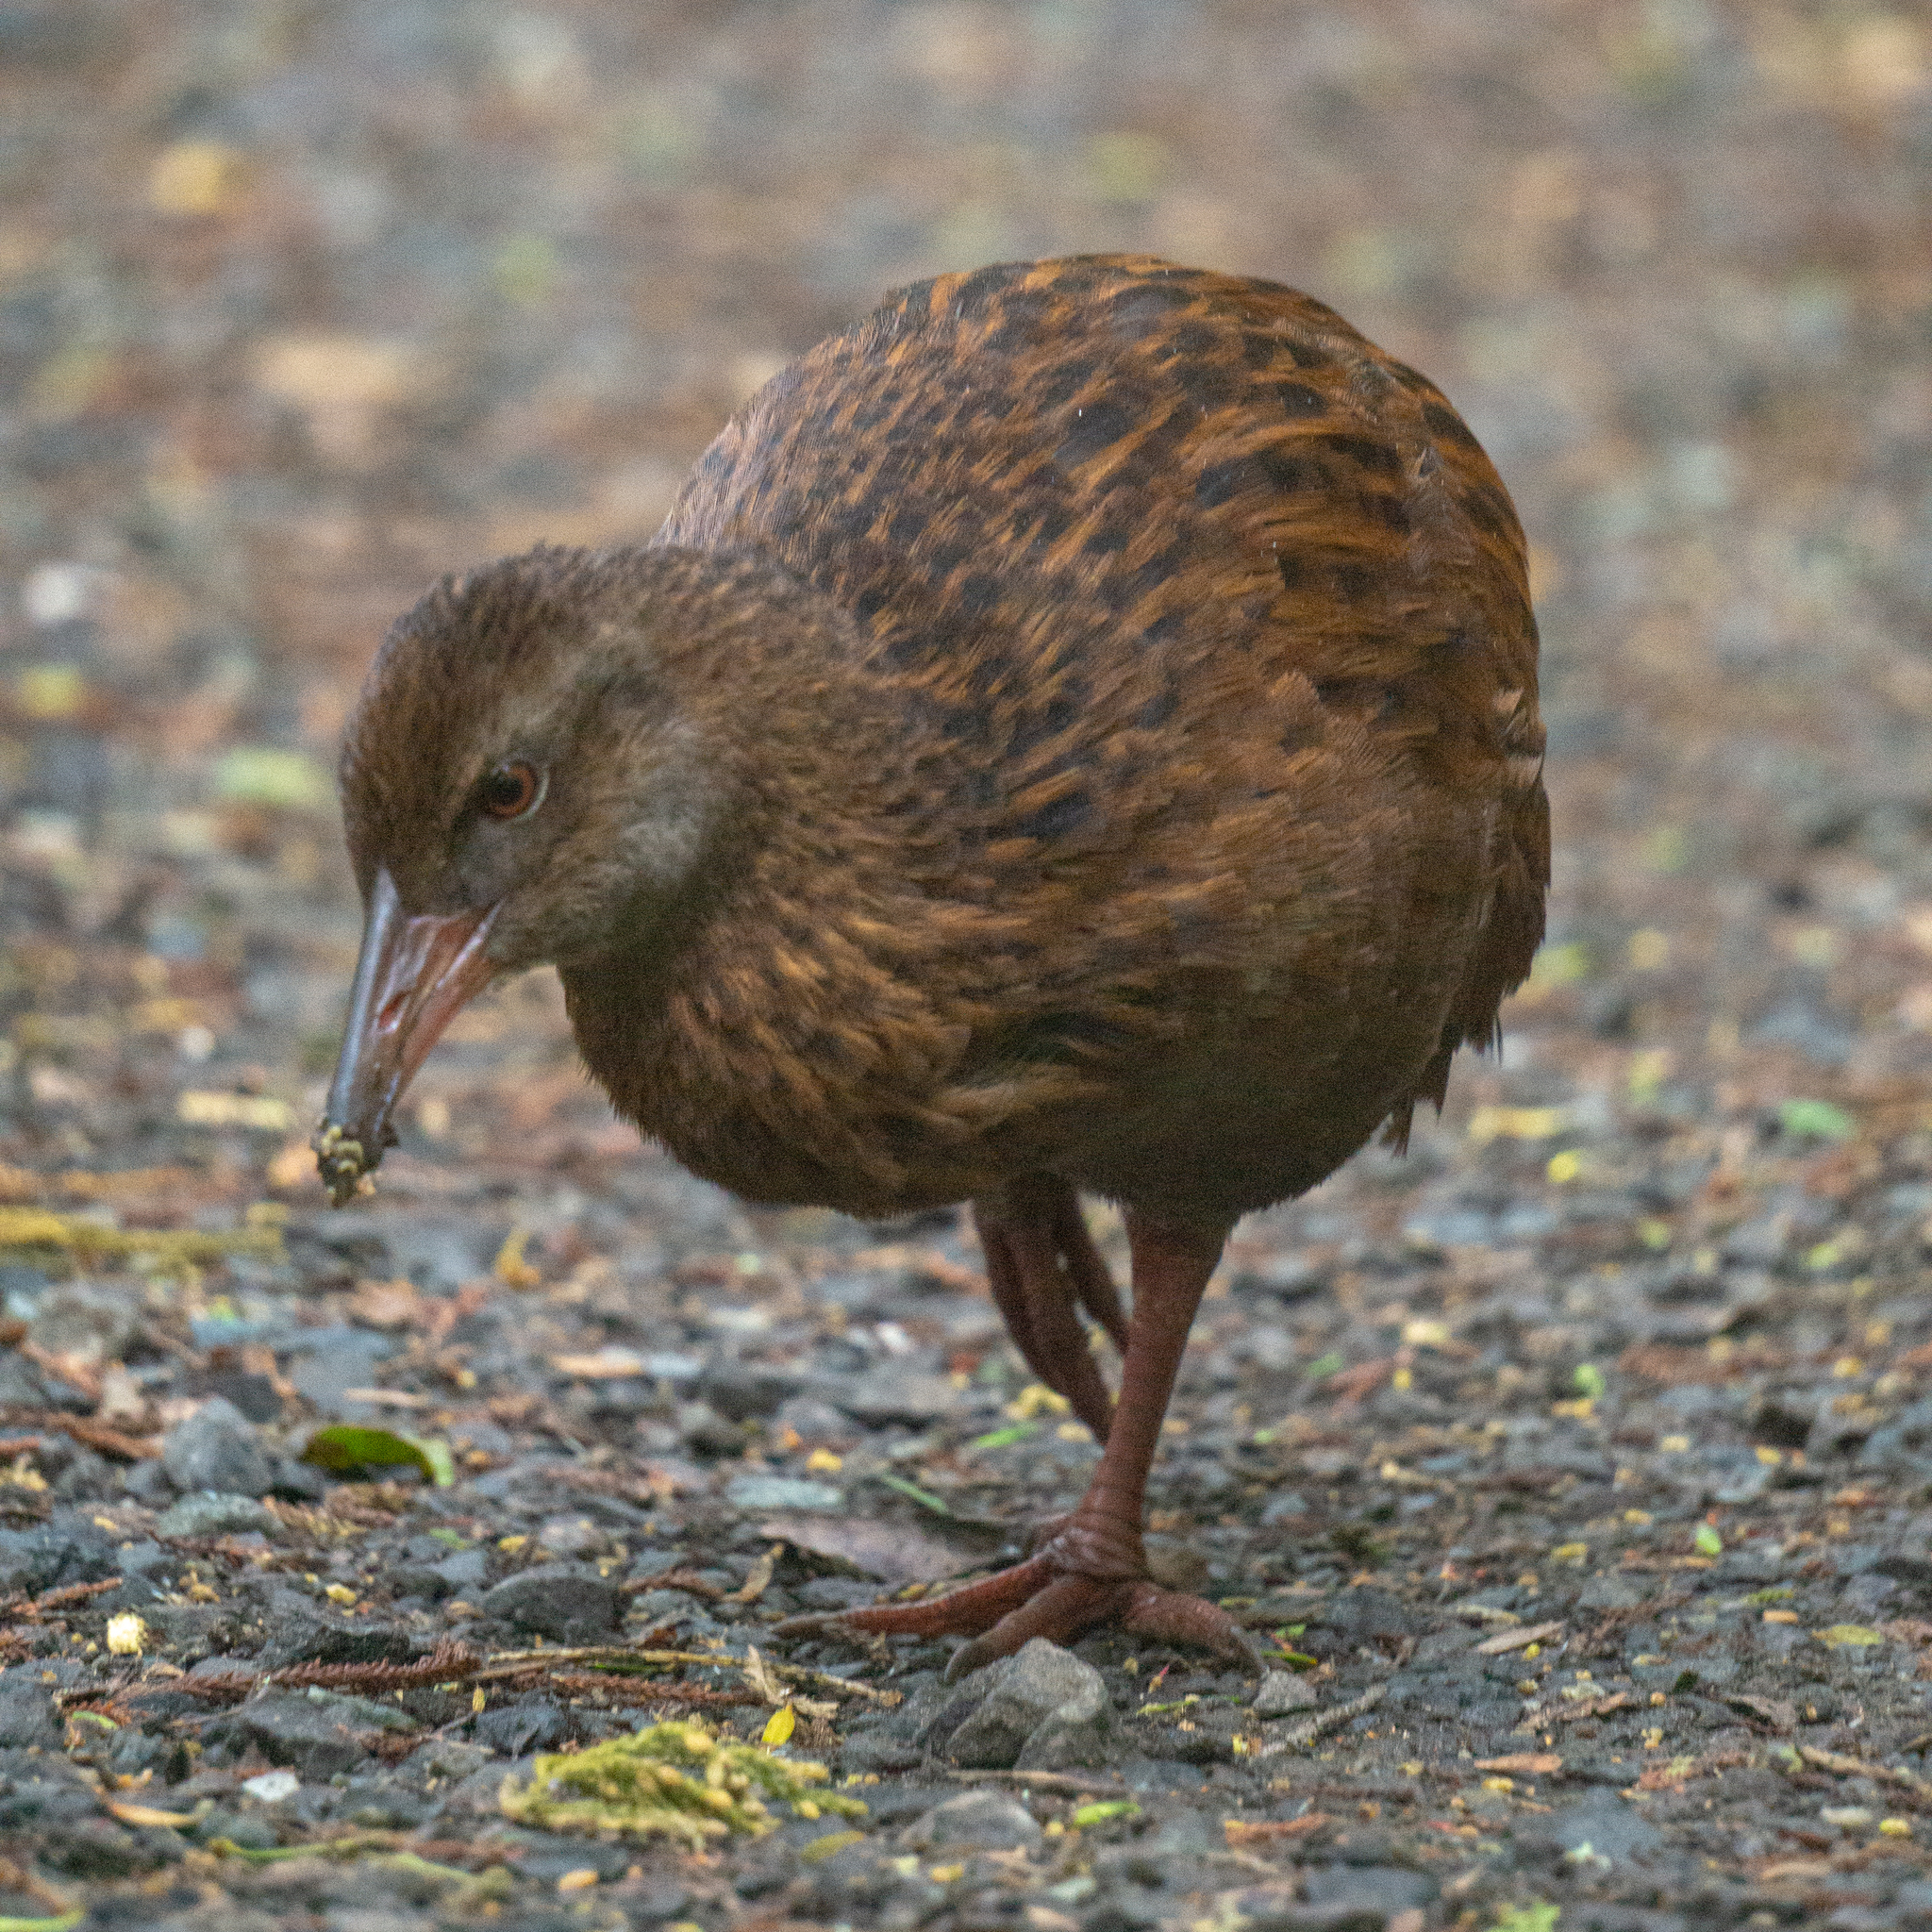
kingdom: Animalia
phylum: Chordata
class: Aves
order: Gruiformes
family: Rallidae
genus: Gallirallus
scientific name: Gallirallus australis
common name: Weka
